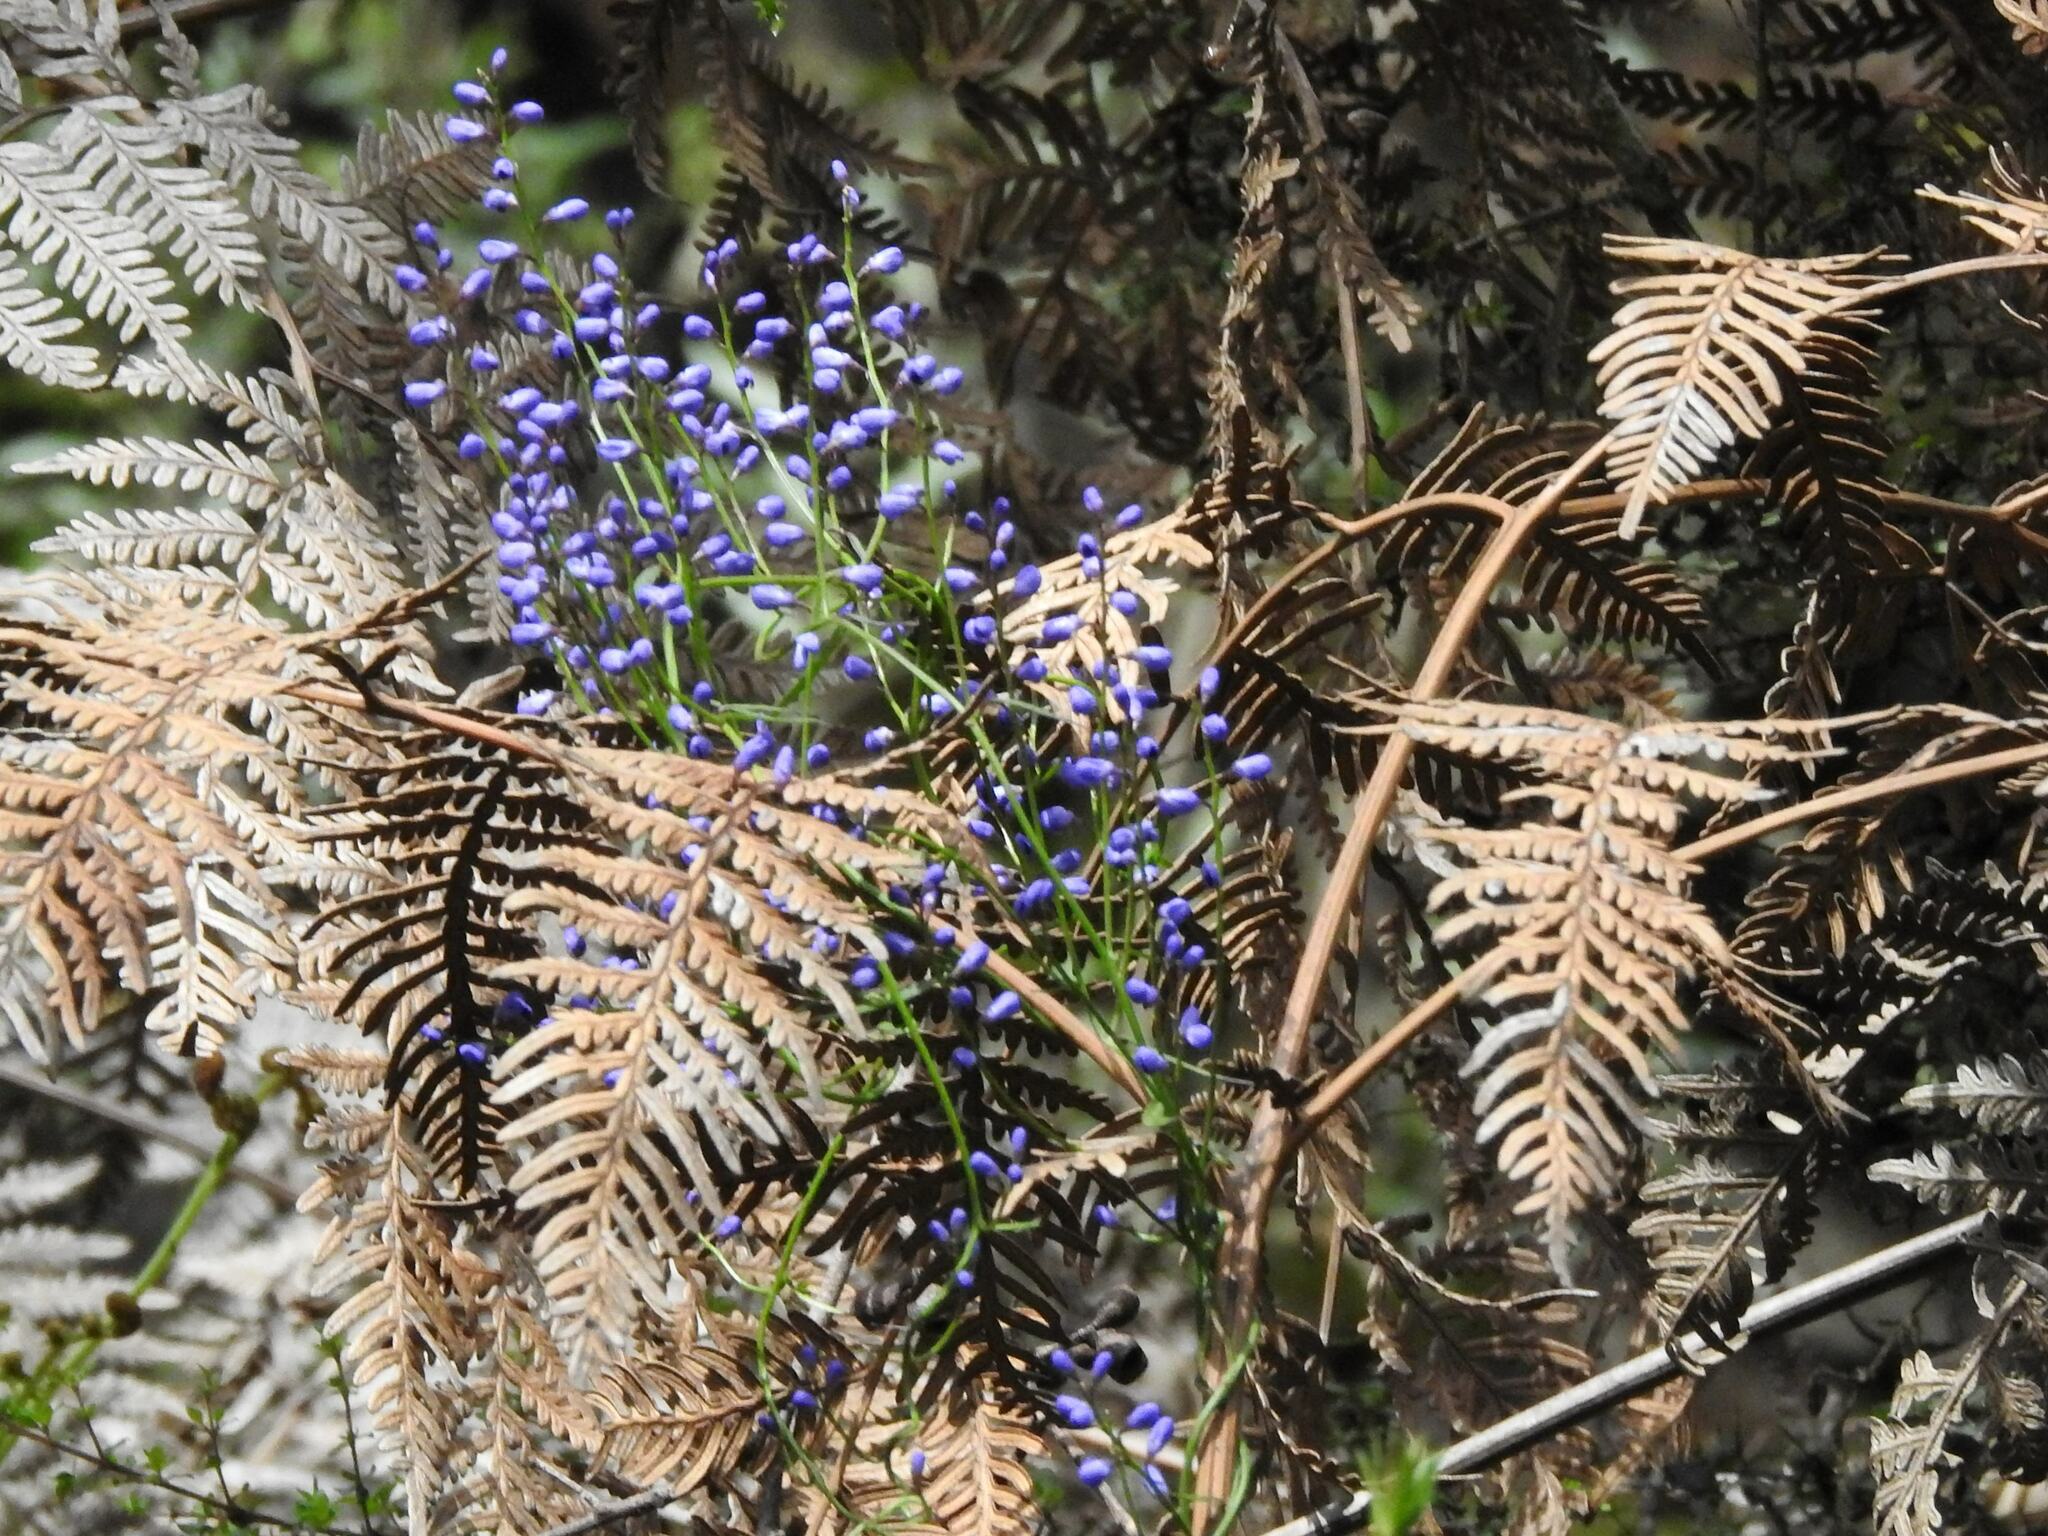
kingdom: Plantae
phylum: Tracheophyta
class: Magnoliopsida
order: Fabales
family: Polygalaceae
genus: Comesperma
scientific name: Comesperma volubile
